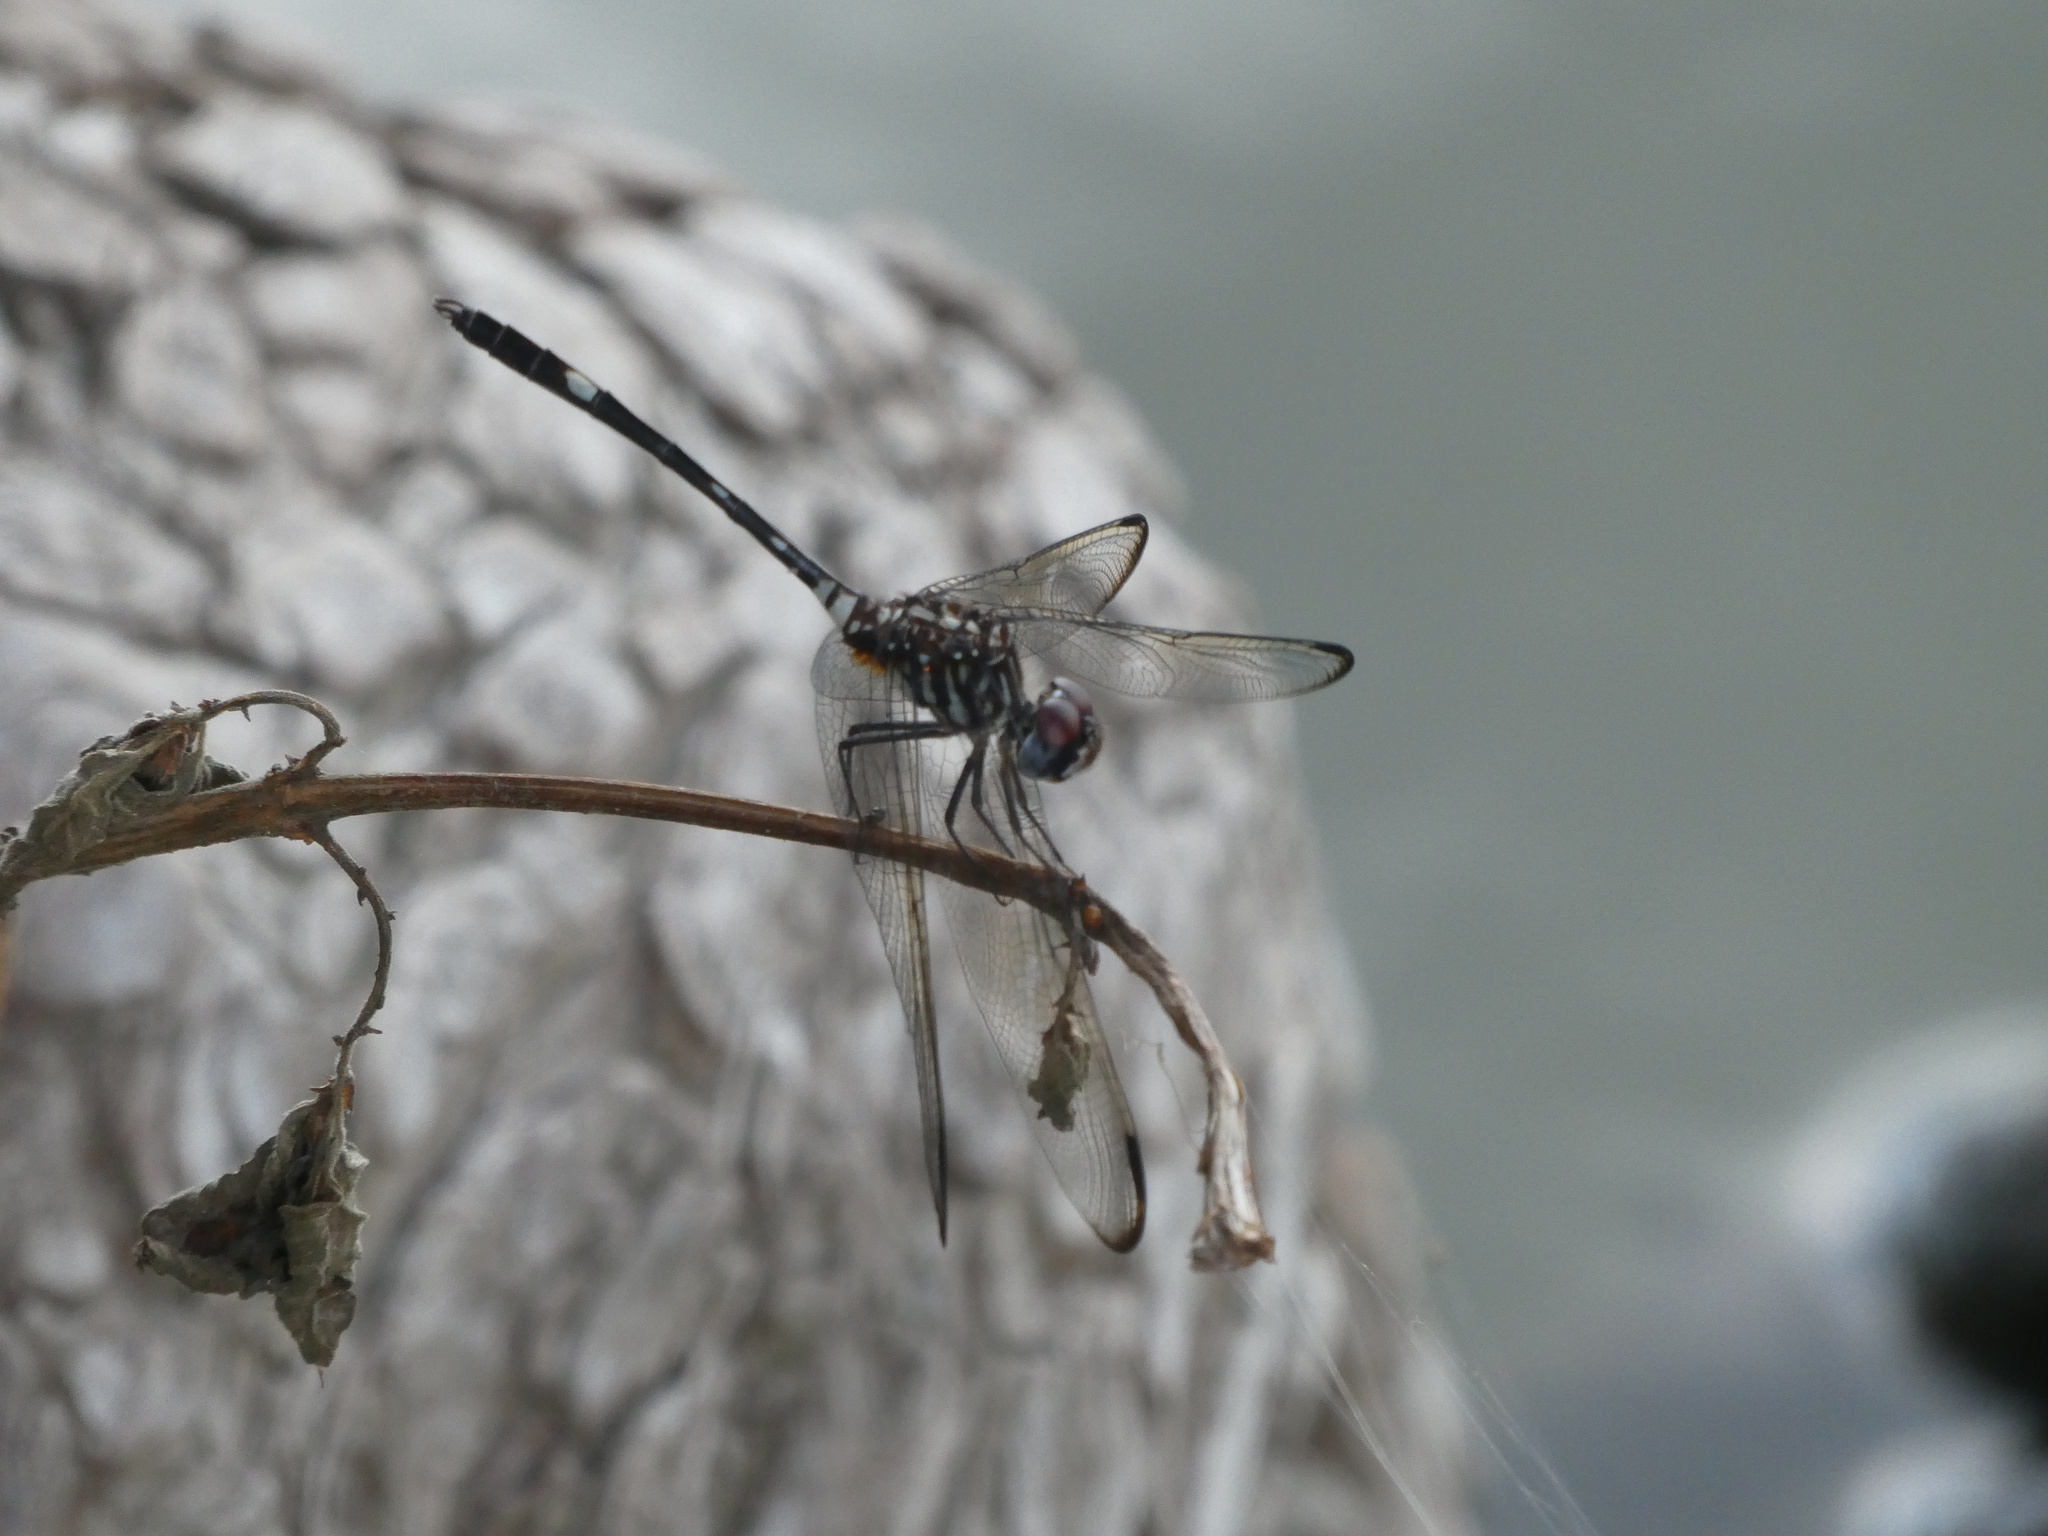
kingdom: Animalia
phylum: Arthropoda
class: Insecta
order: Odonata
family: Libellulidae
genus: Dythemis
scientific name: Dythemis velox
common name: Swift setwing
